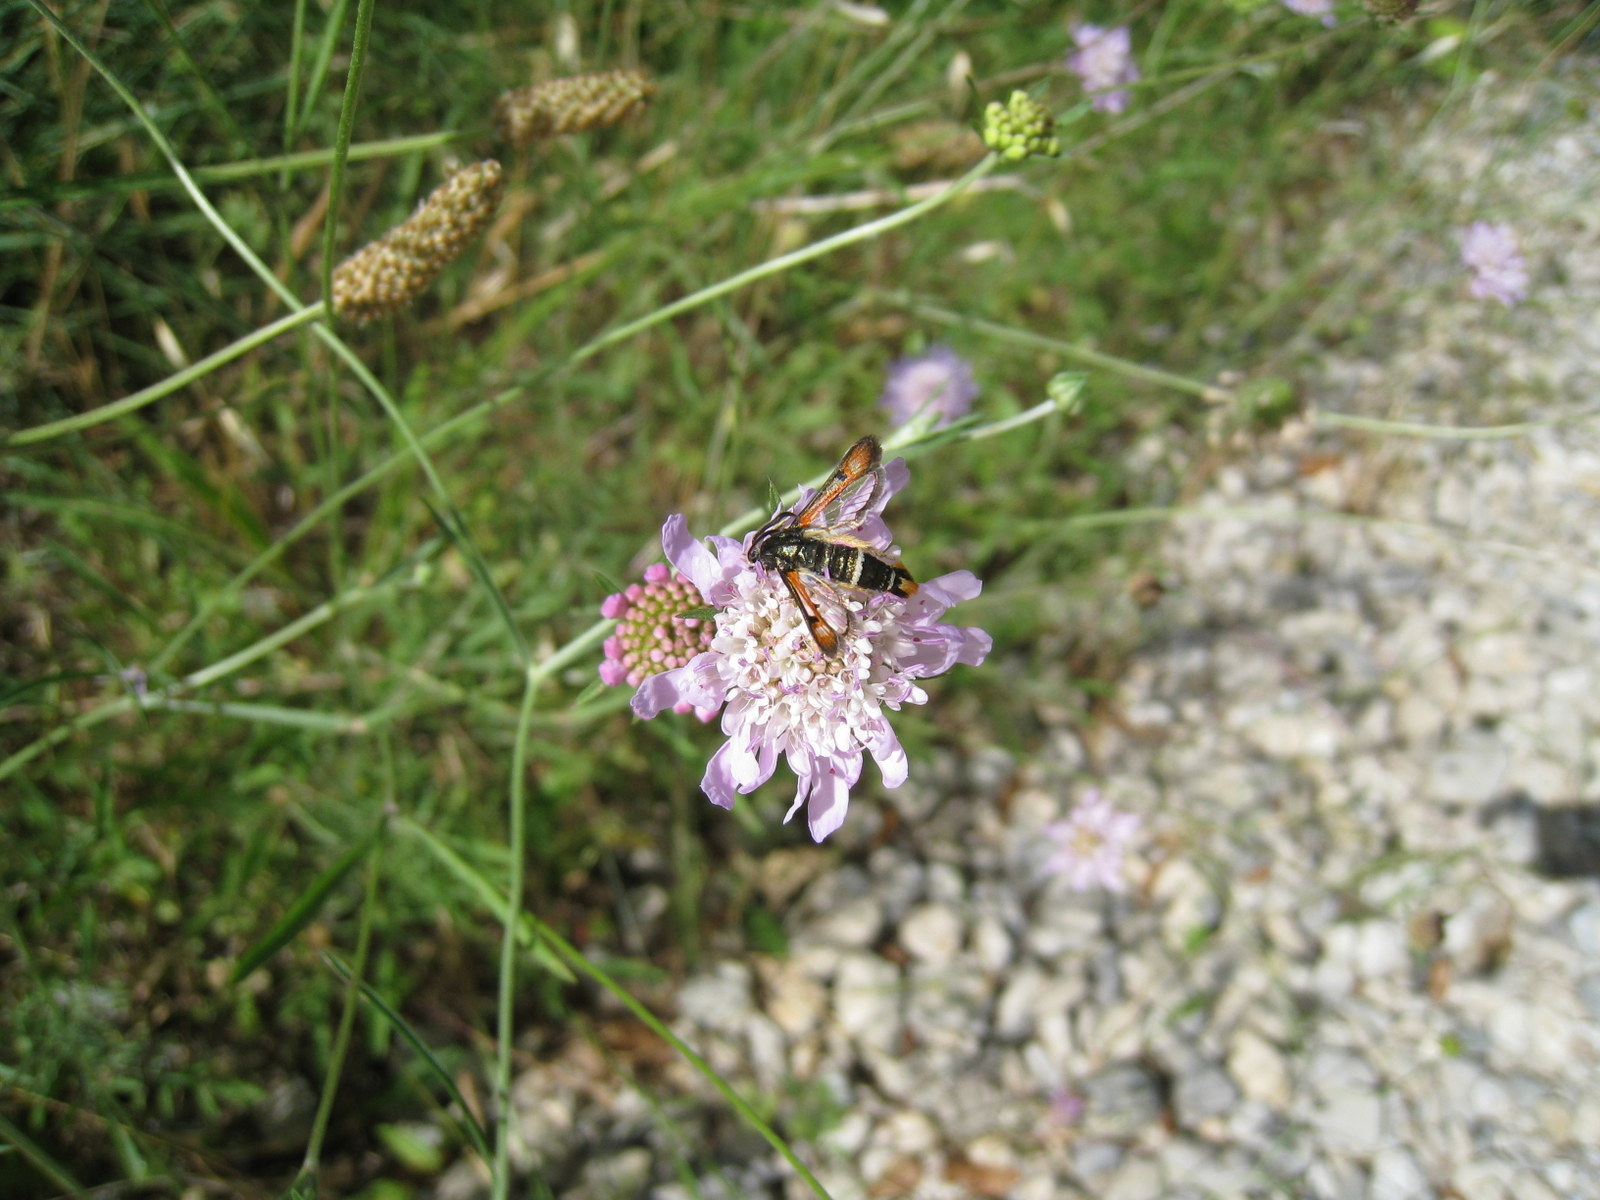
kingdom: Animalia
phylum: Arthropoda
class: Insecta
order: Lepidoptera
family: Sesiidae
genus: Pyropteron
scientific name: Pyropteron chrysidiforme
